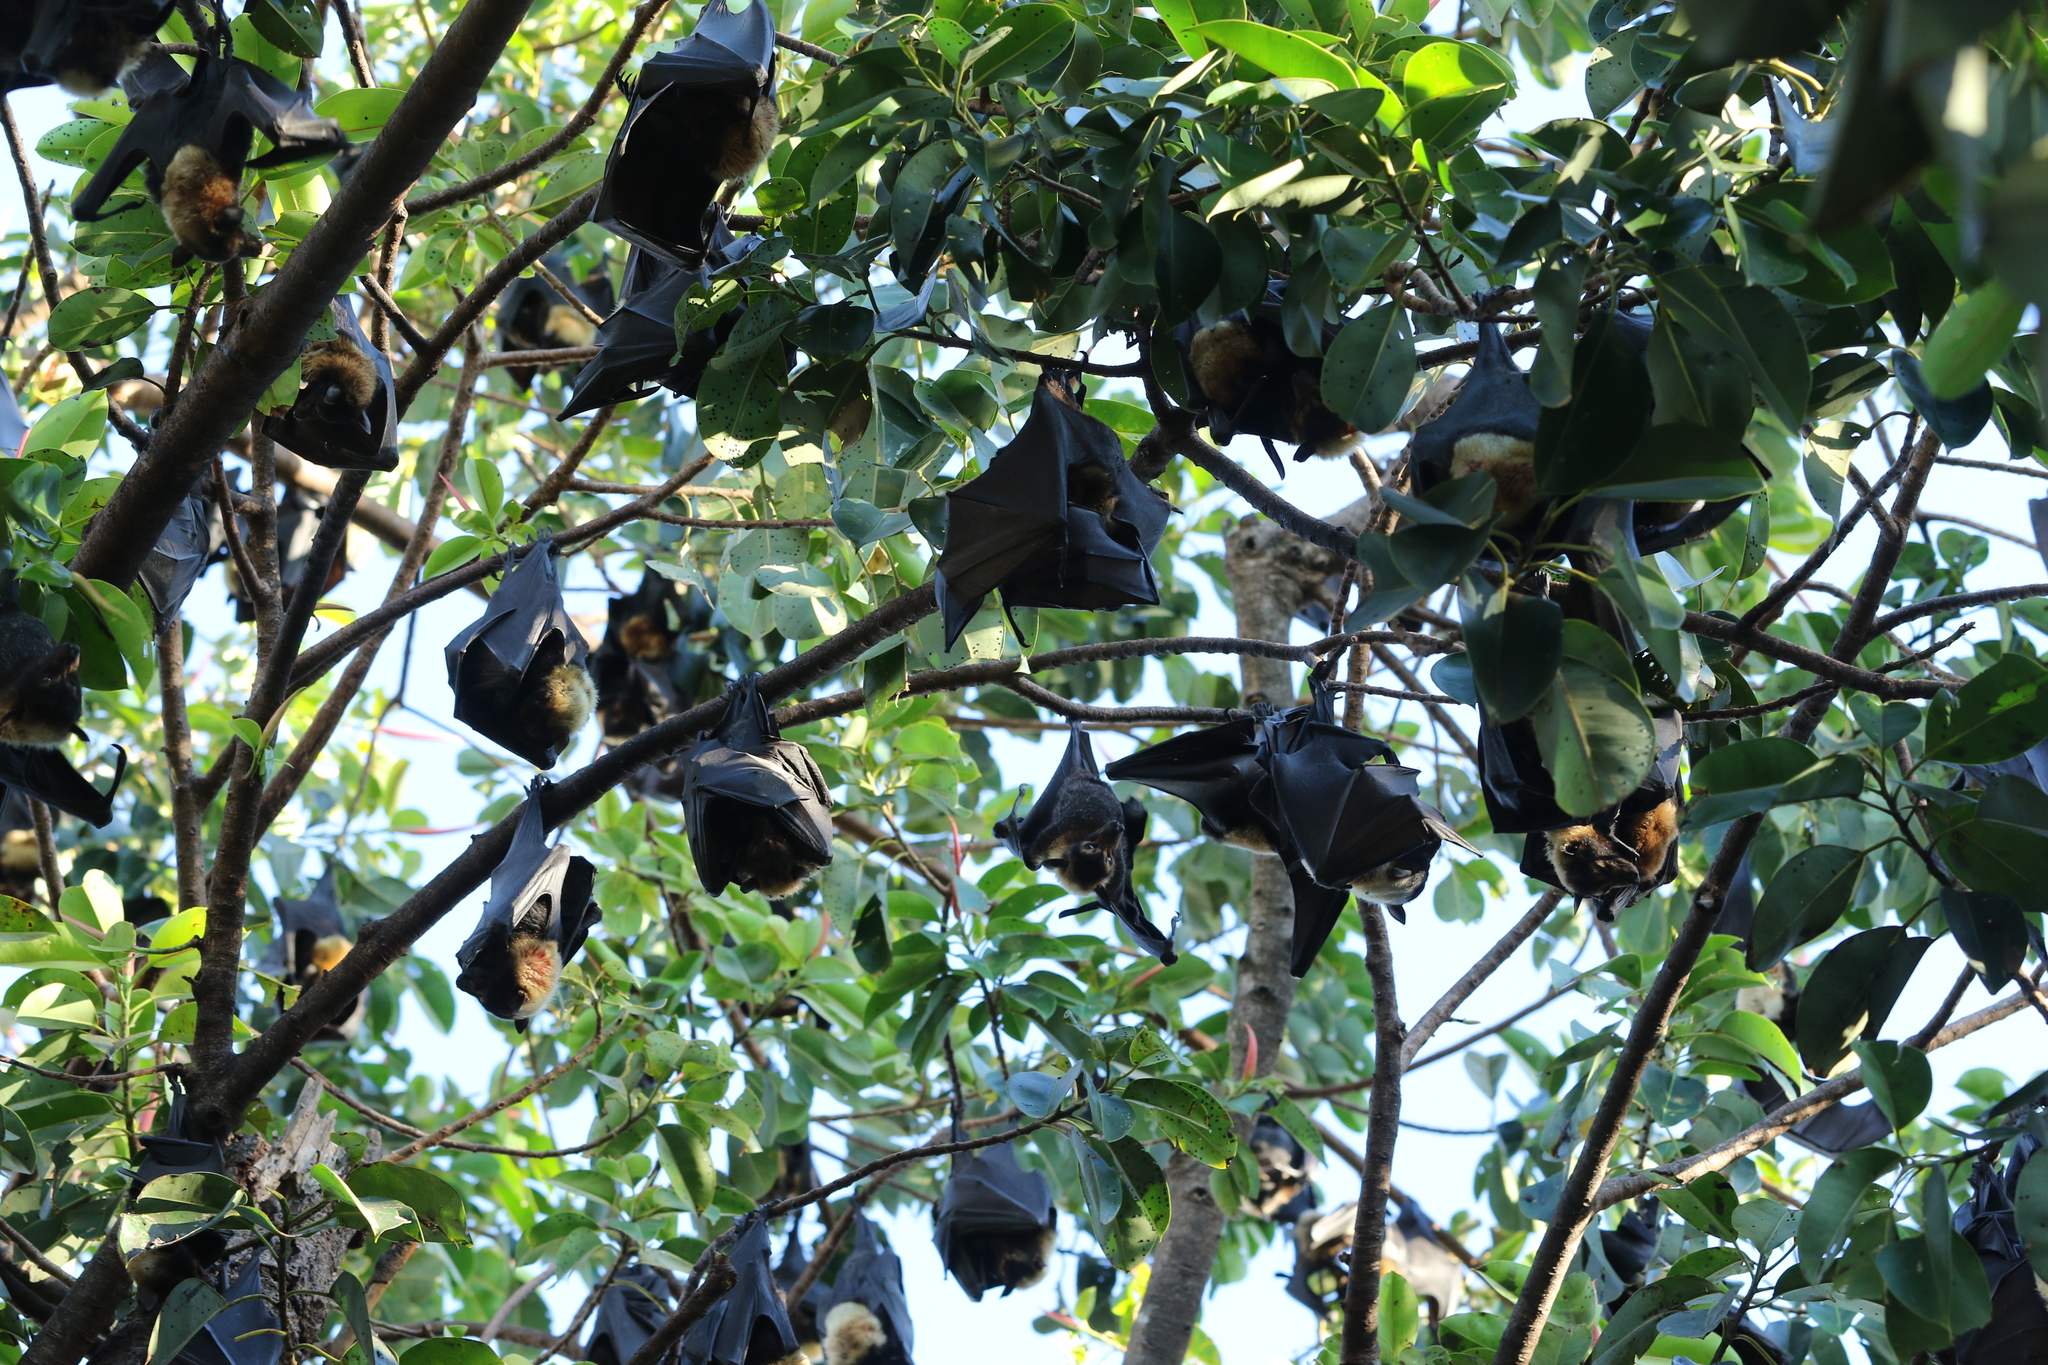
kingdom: Animalia
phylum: Chordata
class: Mammalia
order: Chiroptera
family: Pteropodidae
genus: Pteropus
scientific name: Pteropus conspicillatus
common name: Spectacled flying fox
